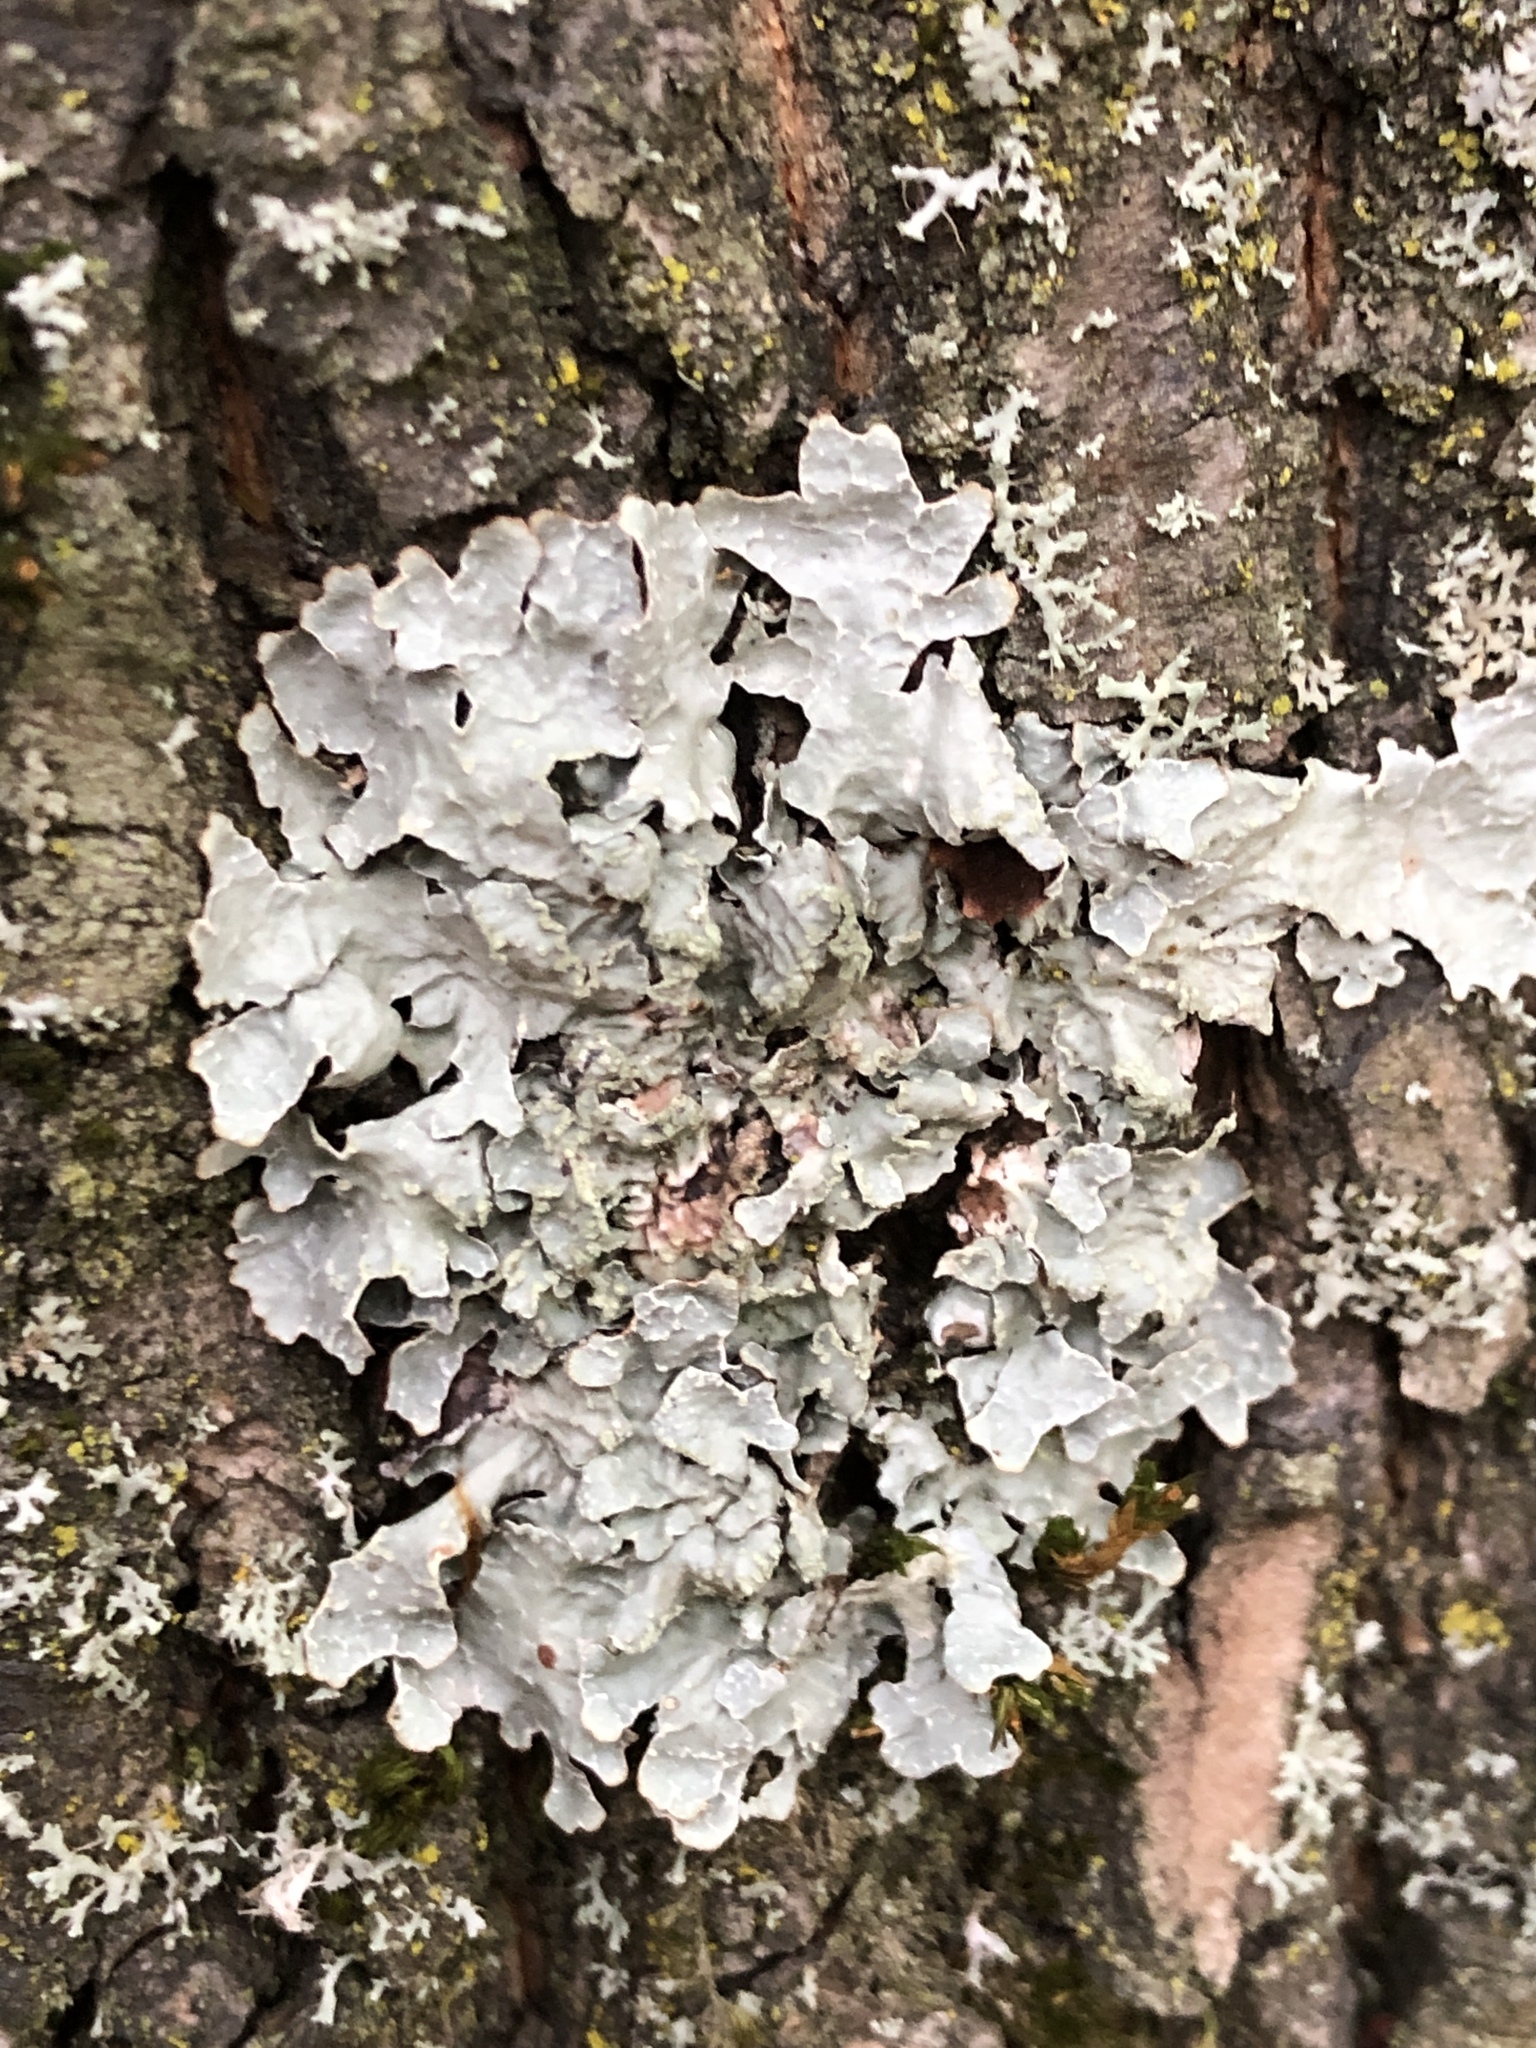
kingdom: Fungi
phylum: Ascomycota
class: Lecanoromycetes
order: Lecanorales
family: Parmeliaceae
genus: Parmelia
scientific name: Parmelia sulcata
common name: Netted shield lichen
